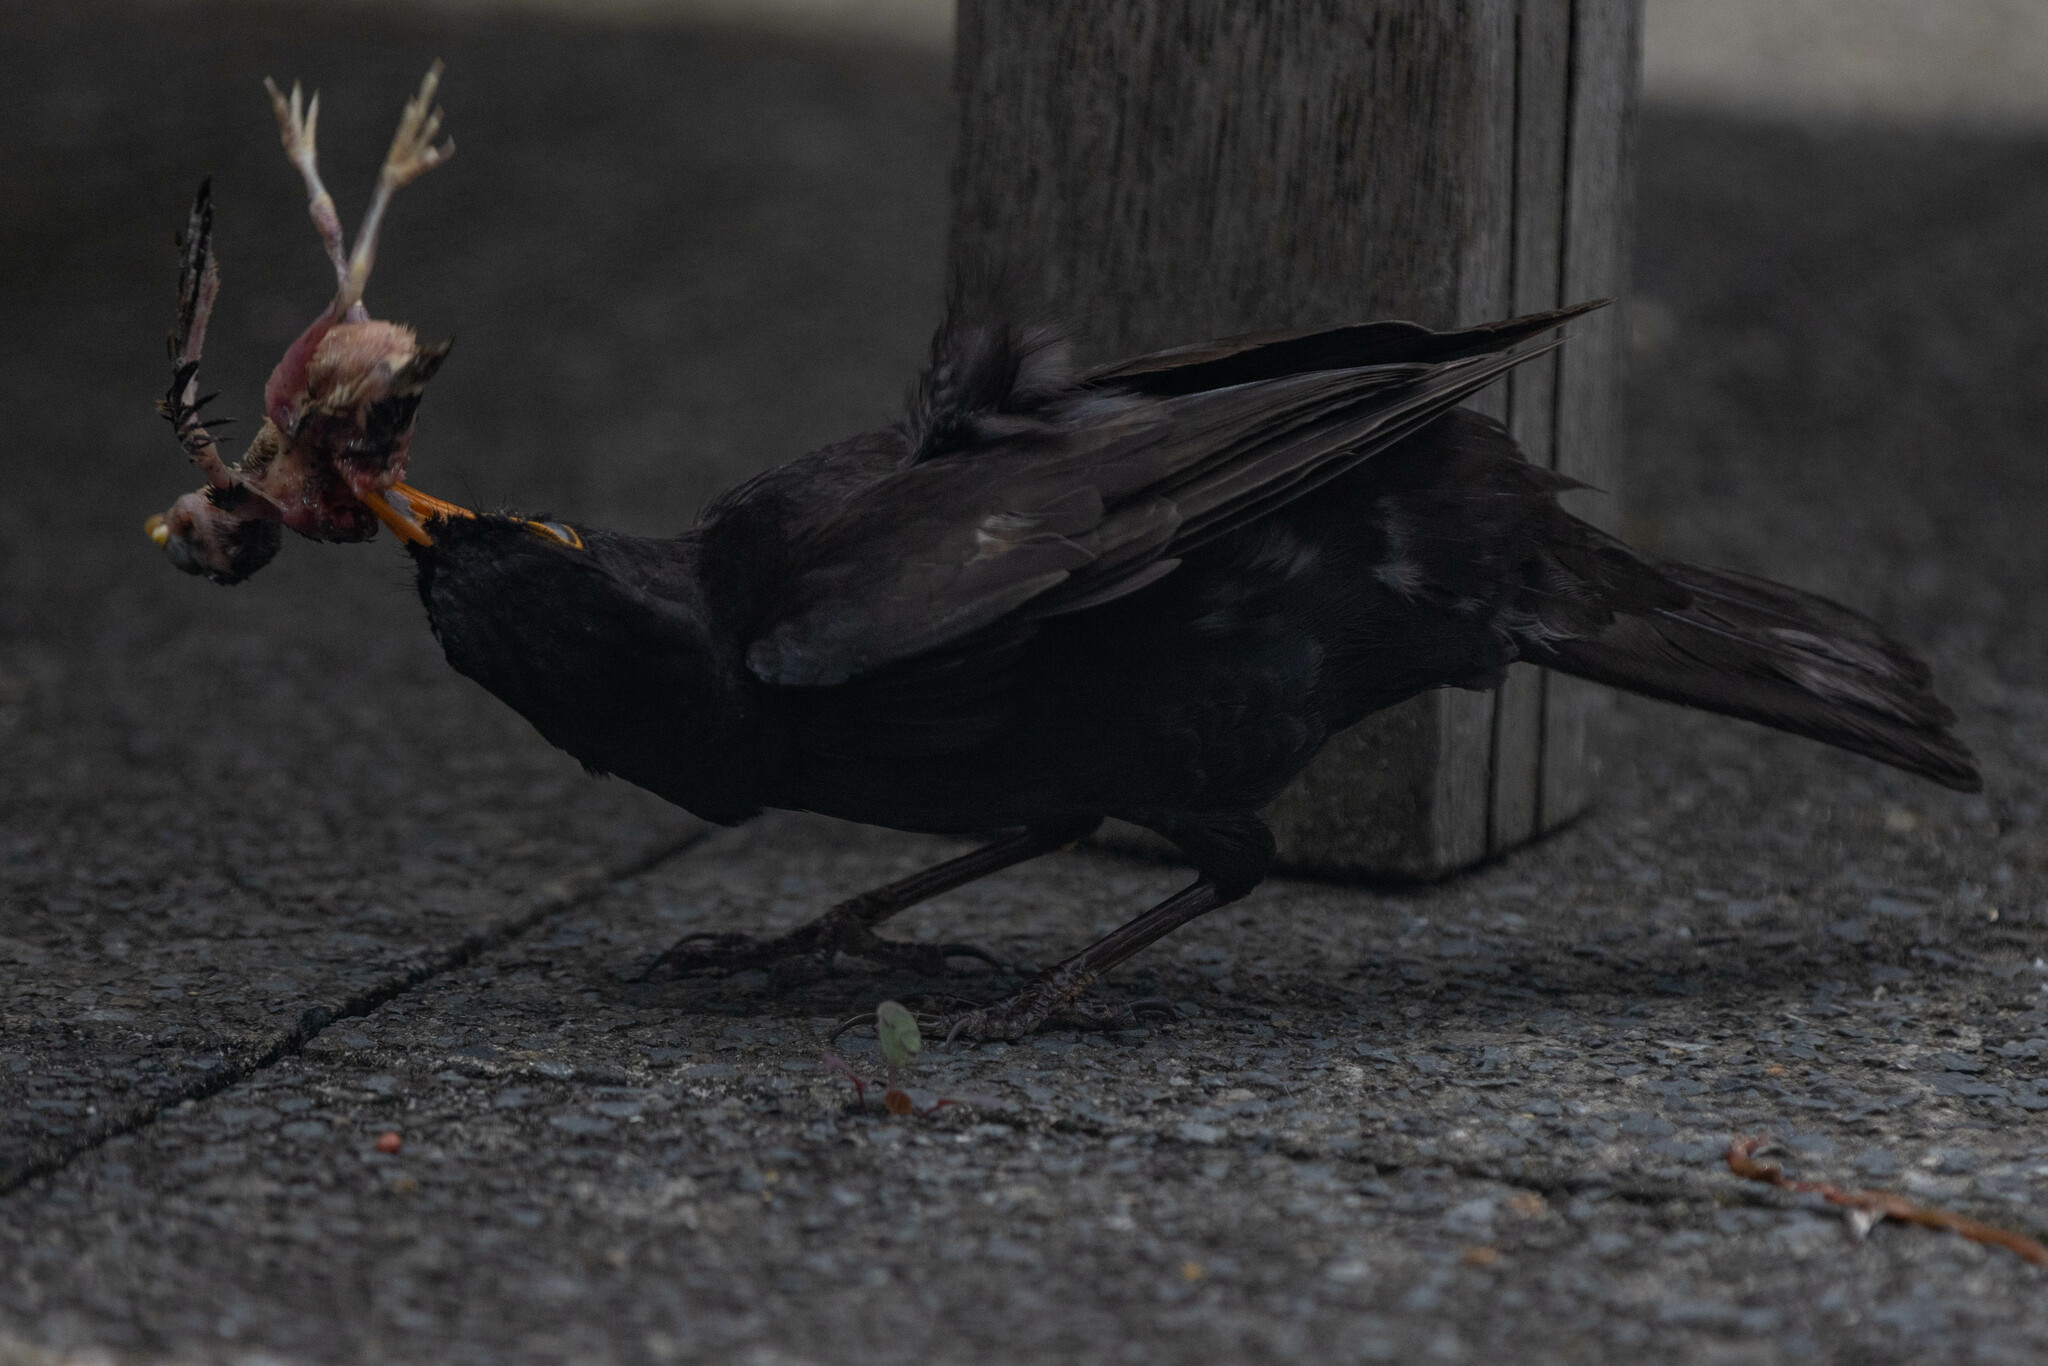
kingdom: Animalia
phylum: Chordata
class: Aves
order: Passeriformes
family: Turdidae
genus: Turdus
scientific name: Turdus merula
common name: Common blackbird
